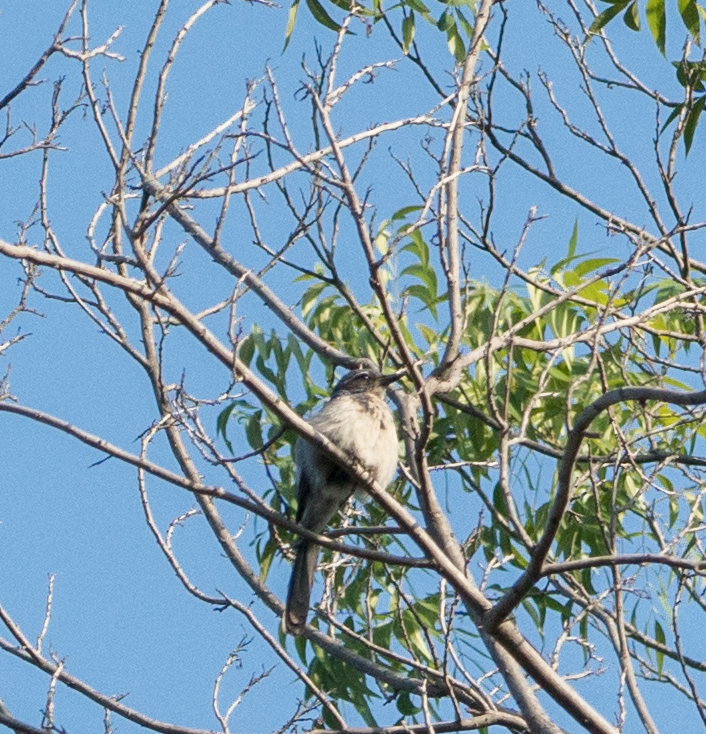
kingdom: Animalia
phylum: Chordata
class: Aves
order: Passeriformes
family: Corvidae
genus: Aphelocoma
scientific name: Aphelocoma californica
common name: California scrub-jay
